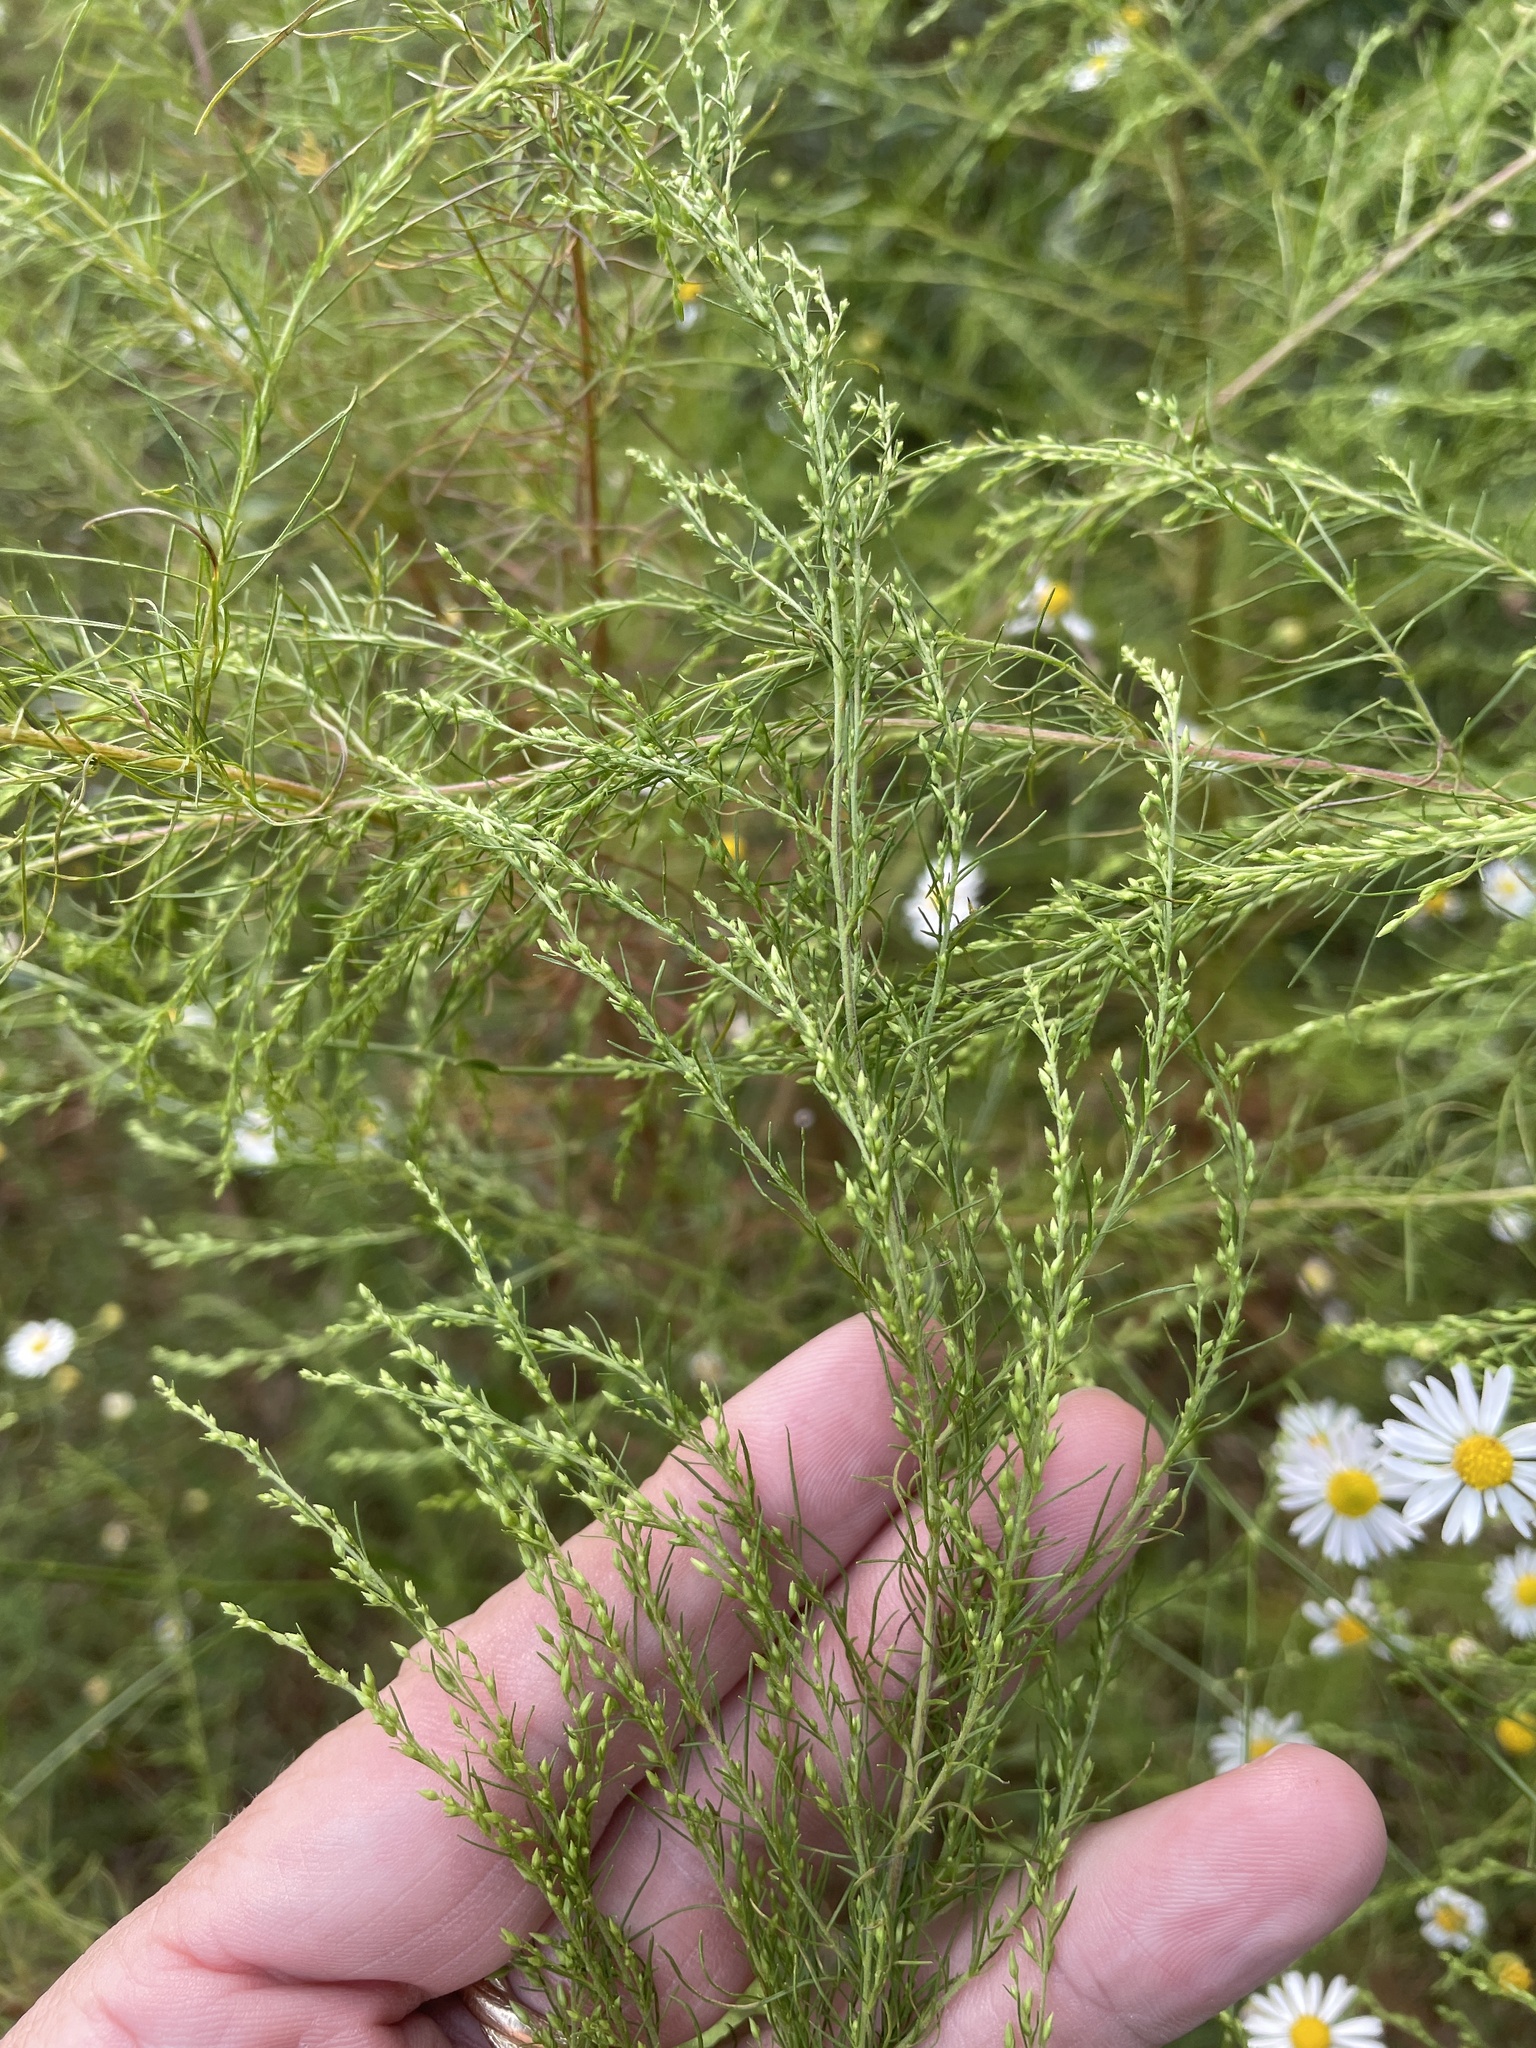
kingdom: Plantae
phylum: Tracheophyta
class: Magnoliopsida
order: Asterales
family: Asteraceae
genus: Eupatorium
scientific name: Eupatorium capillifolium
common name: Dog-fennel
